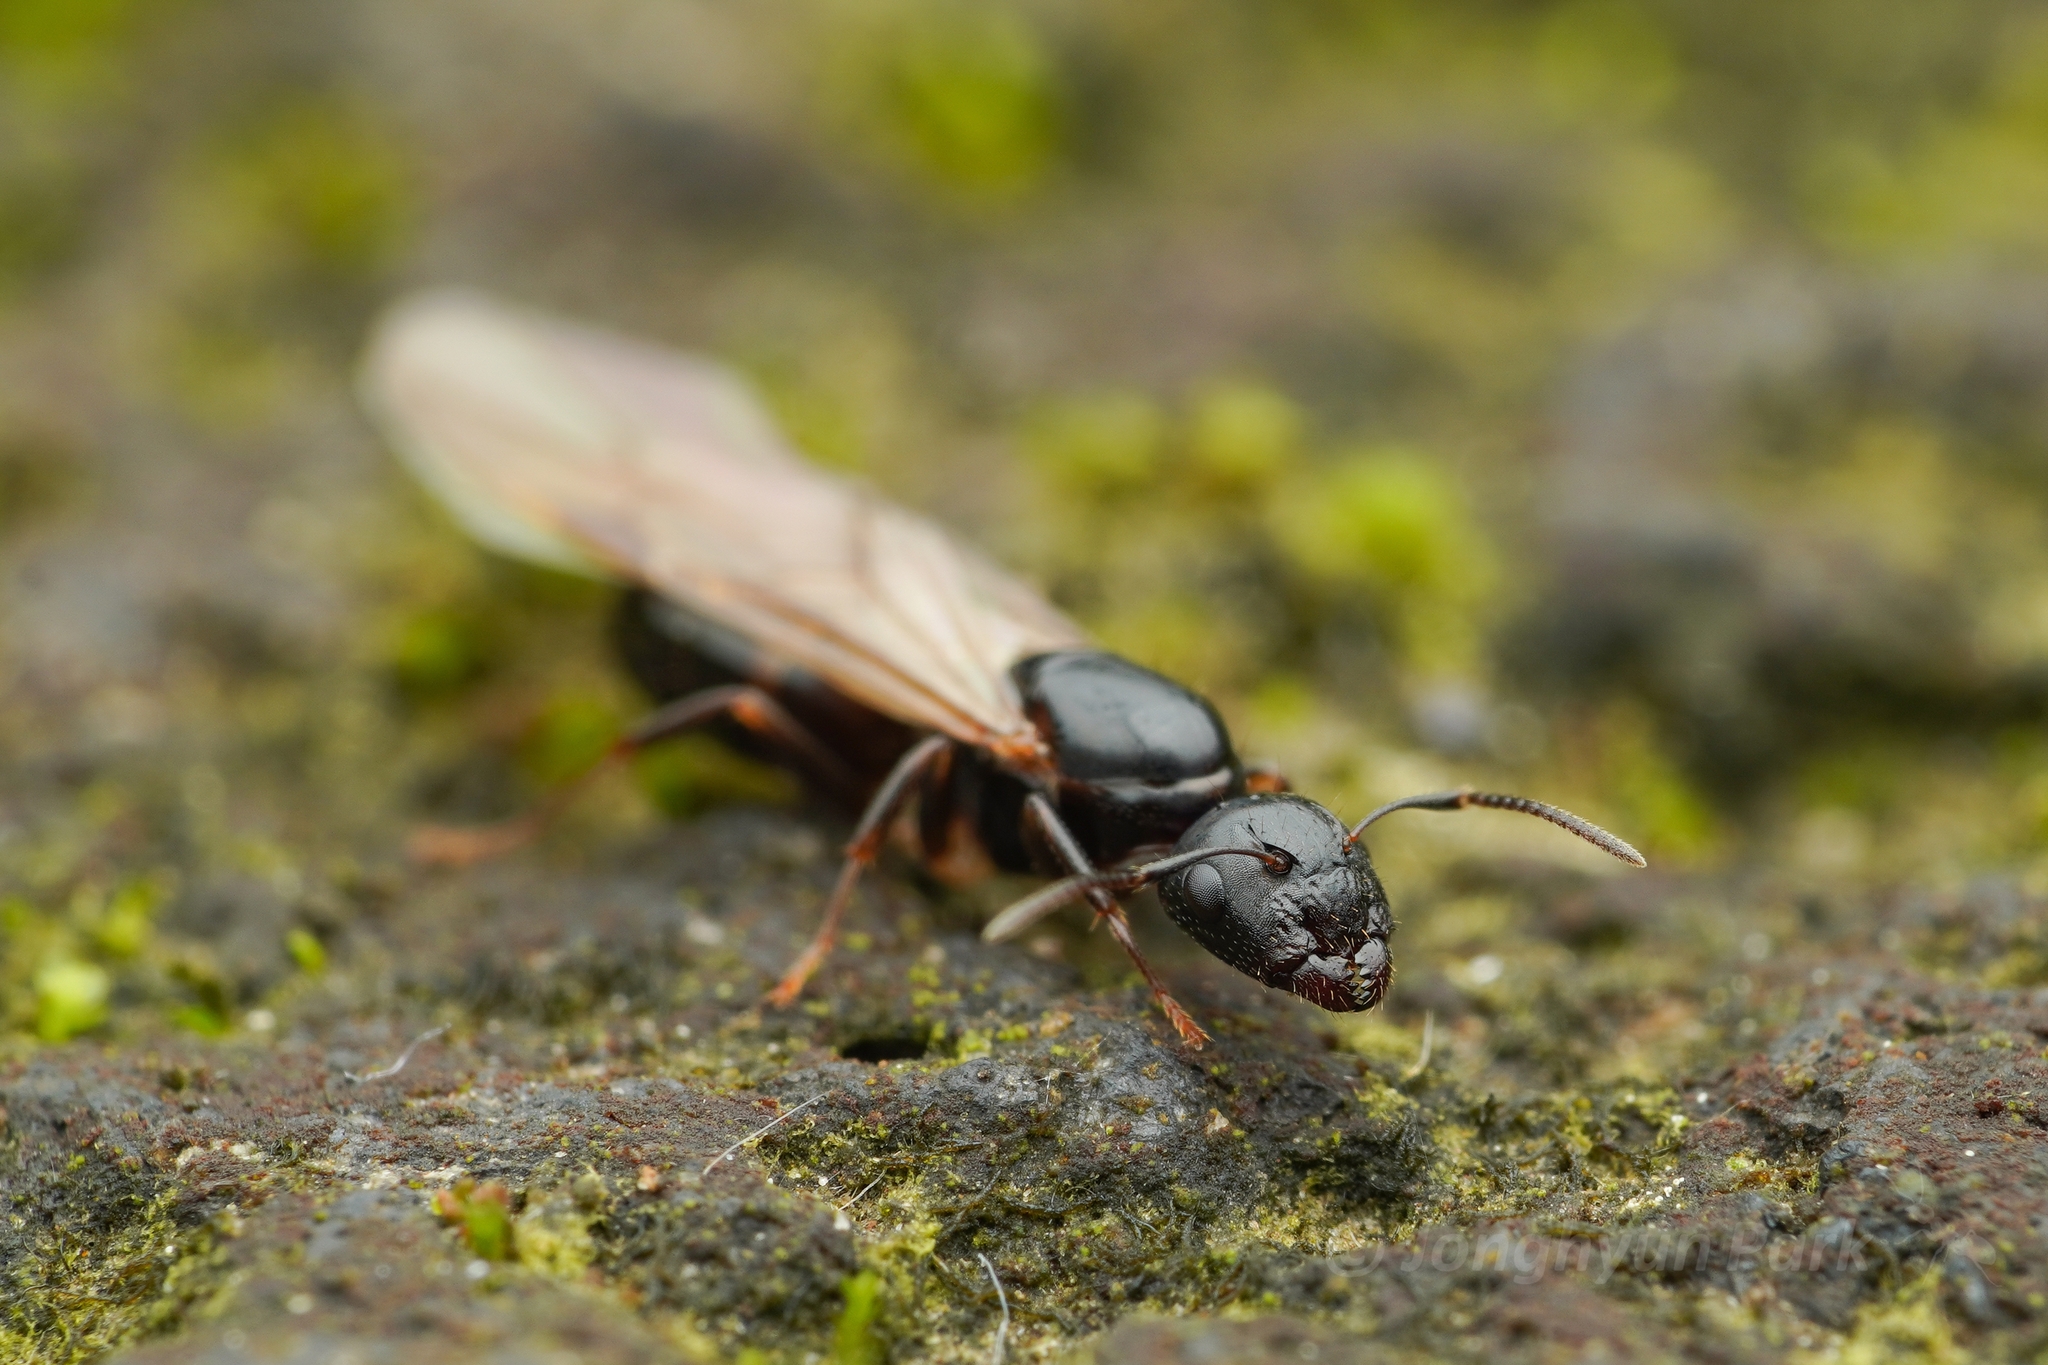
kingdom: Animalia
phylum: Arthropoda
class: Insecta
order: Hymenoptera
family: Formicidae
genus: Camponotus
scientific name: Camponotus yamaokai
